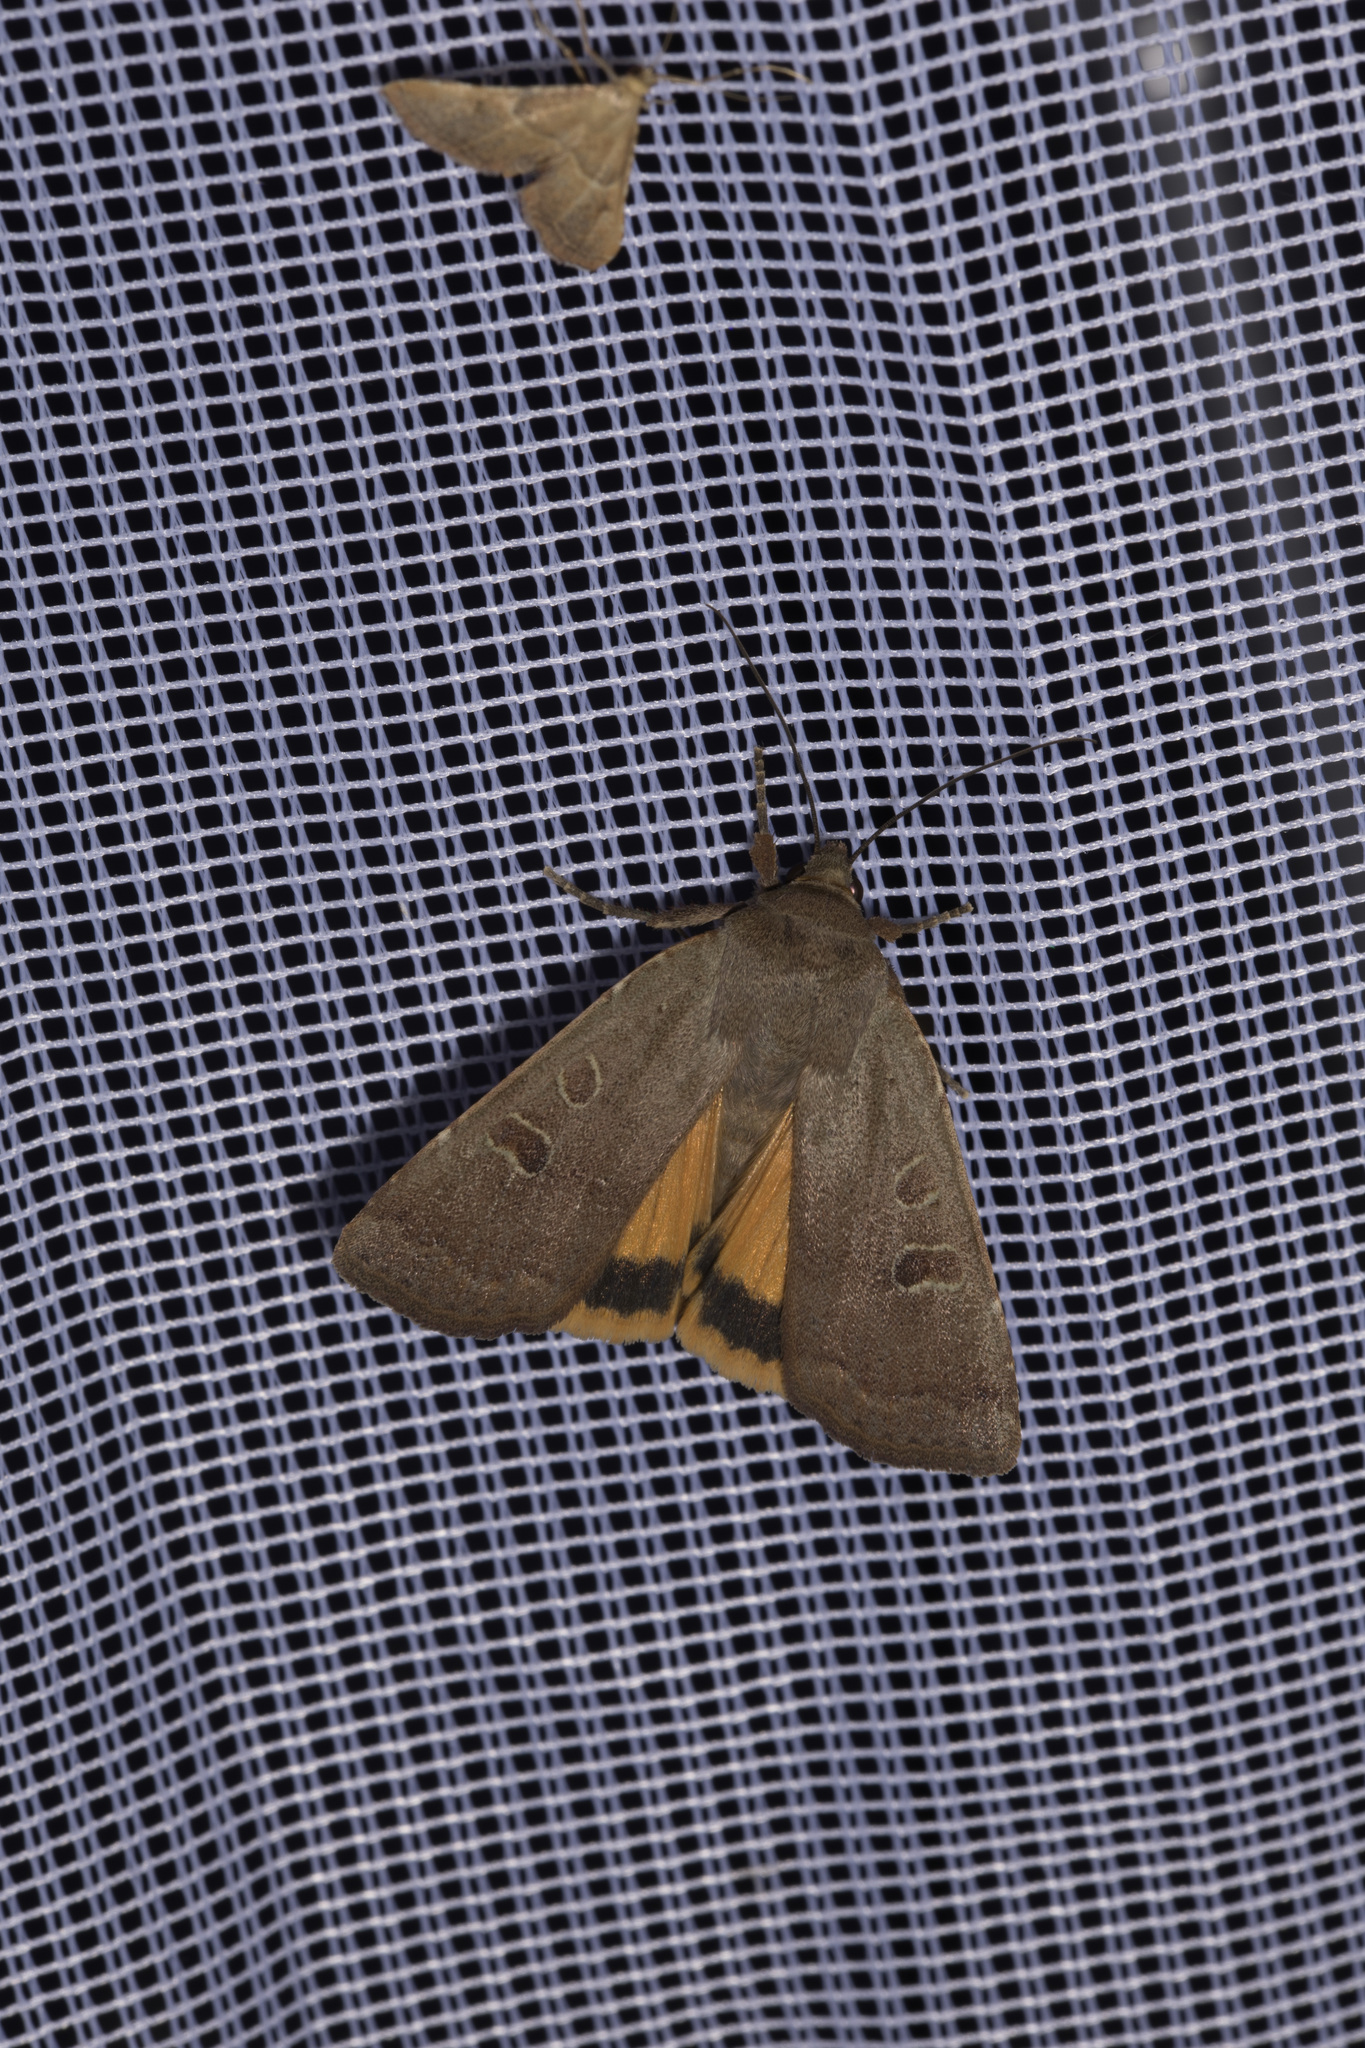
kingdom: Animalia
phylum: Arthropoda
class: Insecta
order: Lepidoptera
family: Noctuidae
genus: Noctua
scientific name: Noctua comes
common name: Lesser yellow underwing
